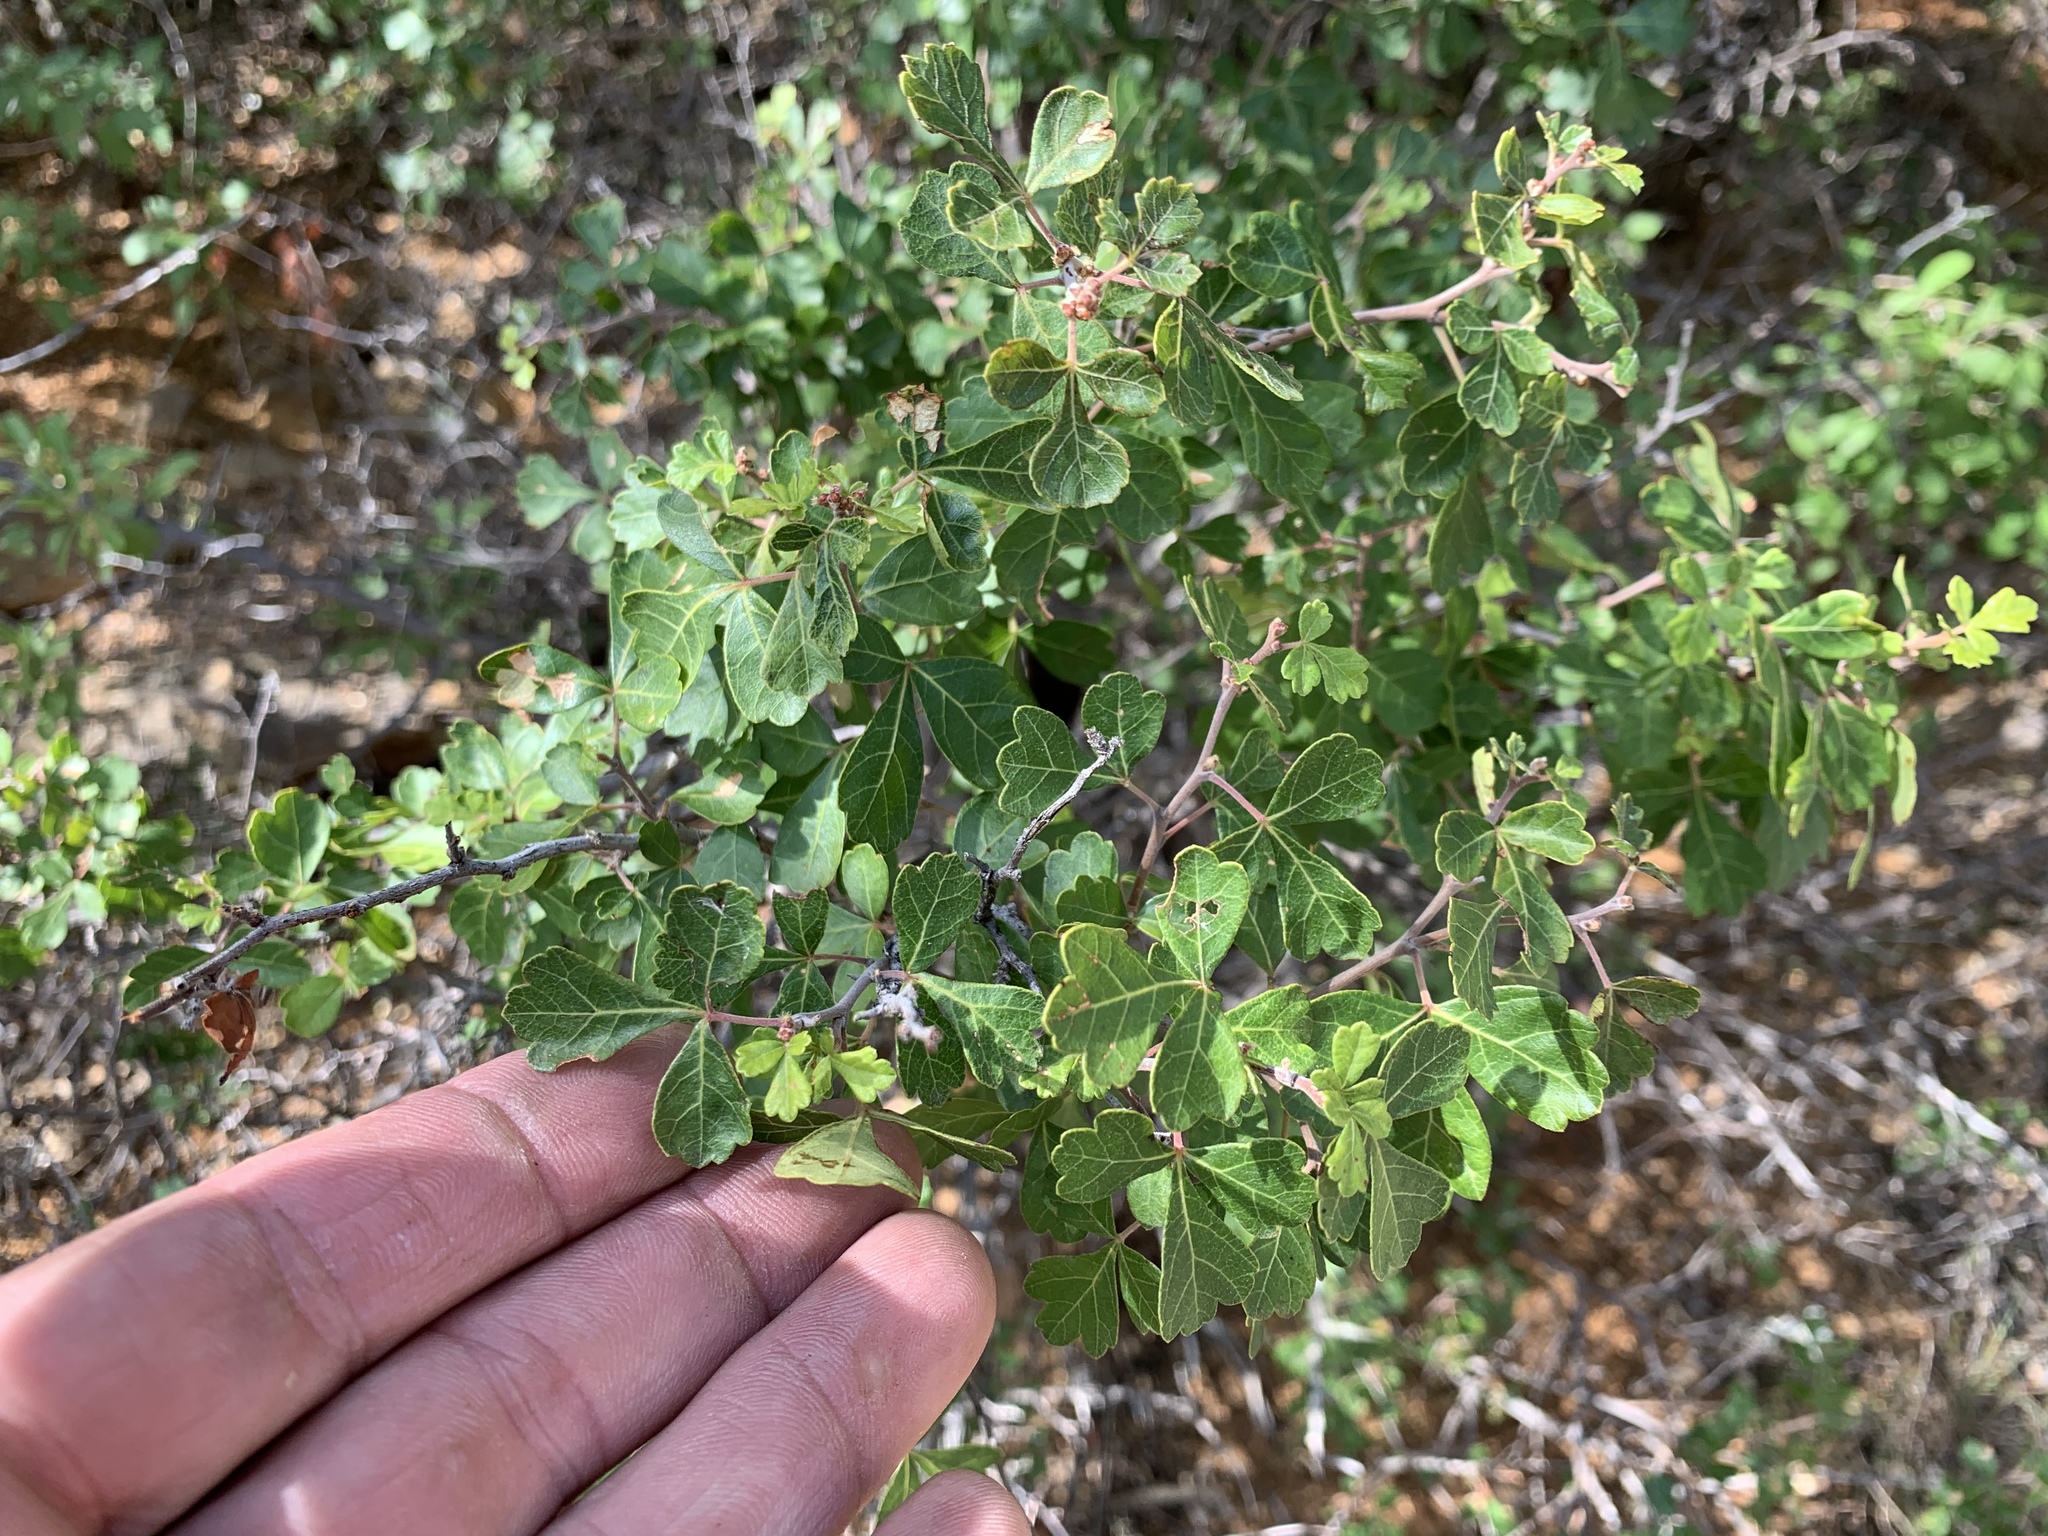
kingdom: Plantae
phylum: Tracheophyta
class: Magnoliopsida
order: Sapindales
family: Anacardiaceae
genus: Rhus
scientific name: Rhus aromatica
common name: Aromatic sumac
